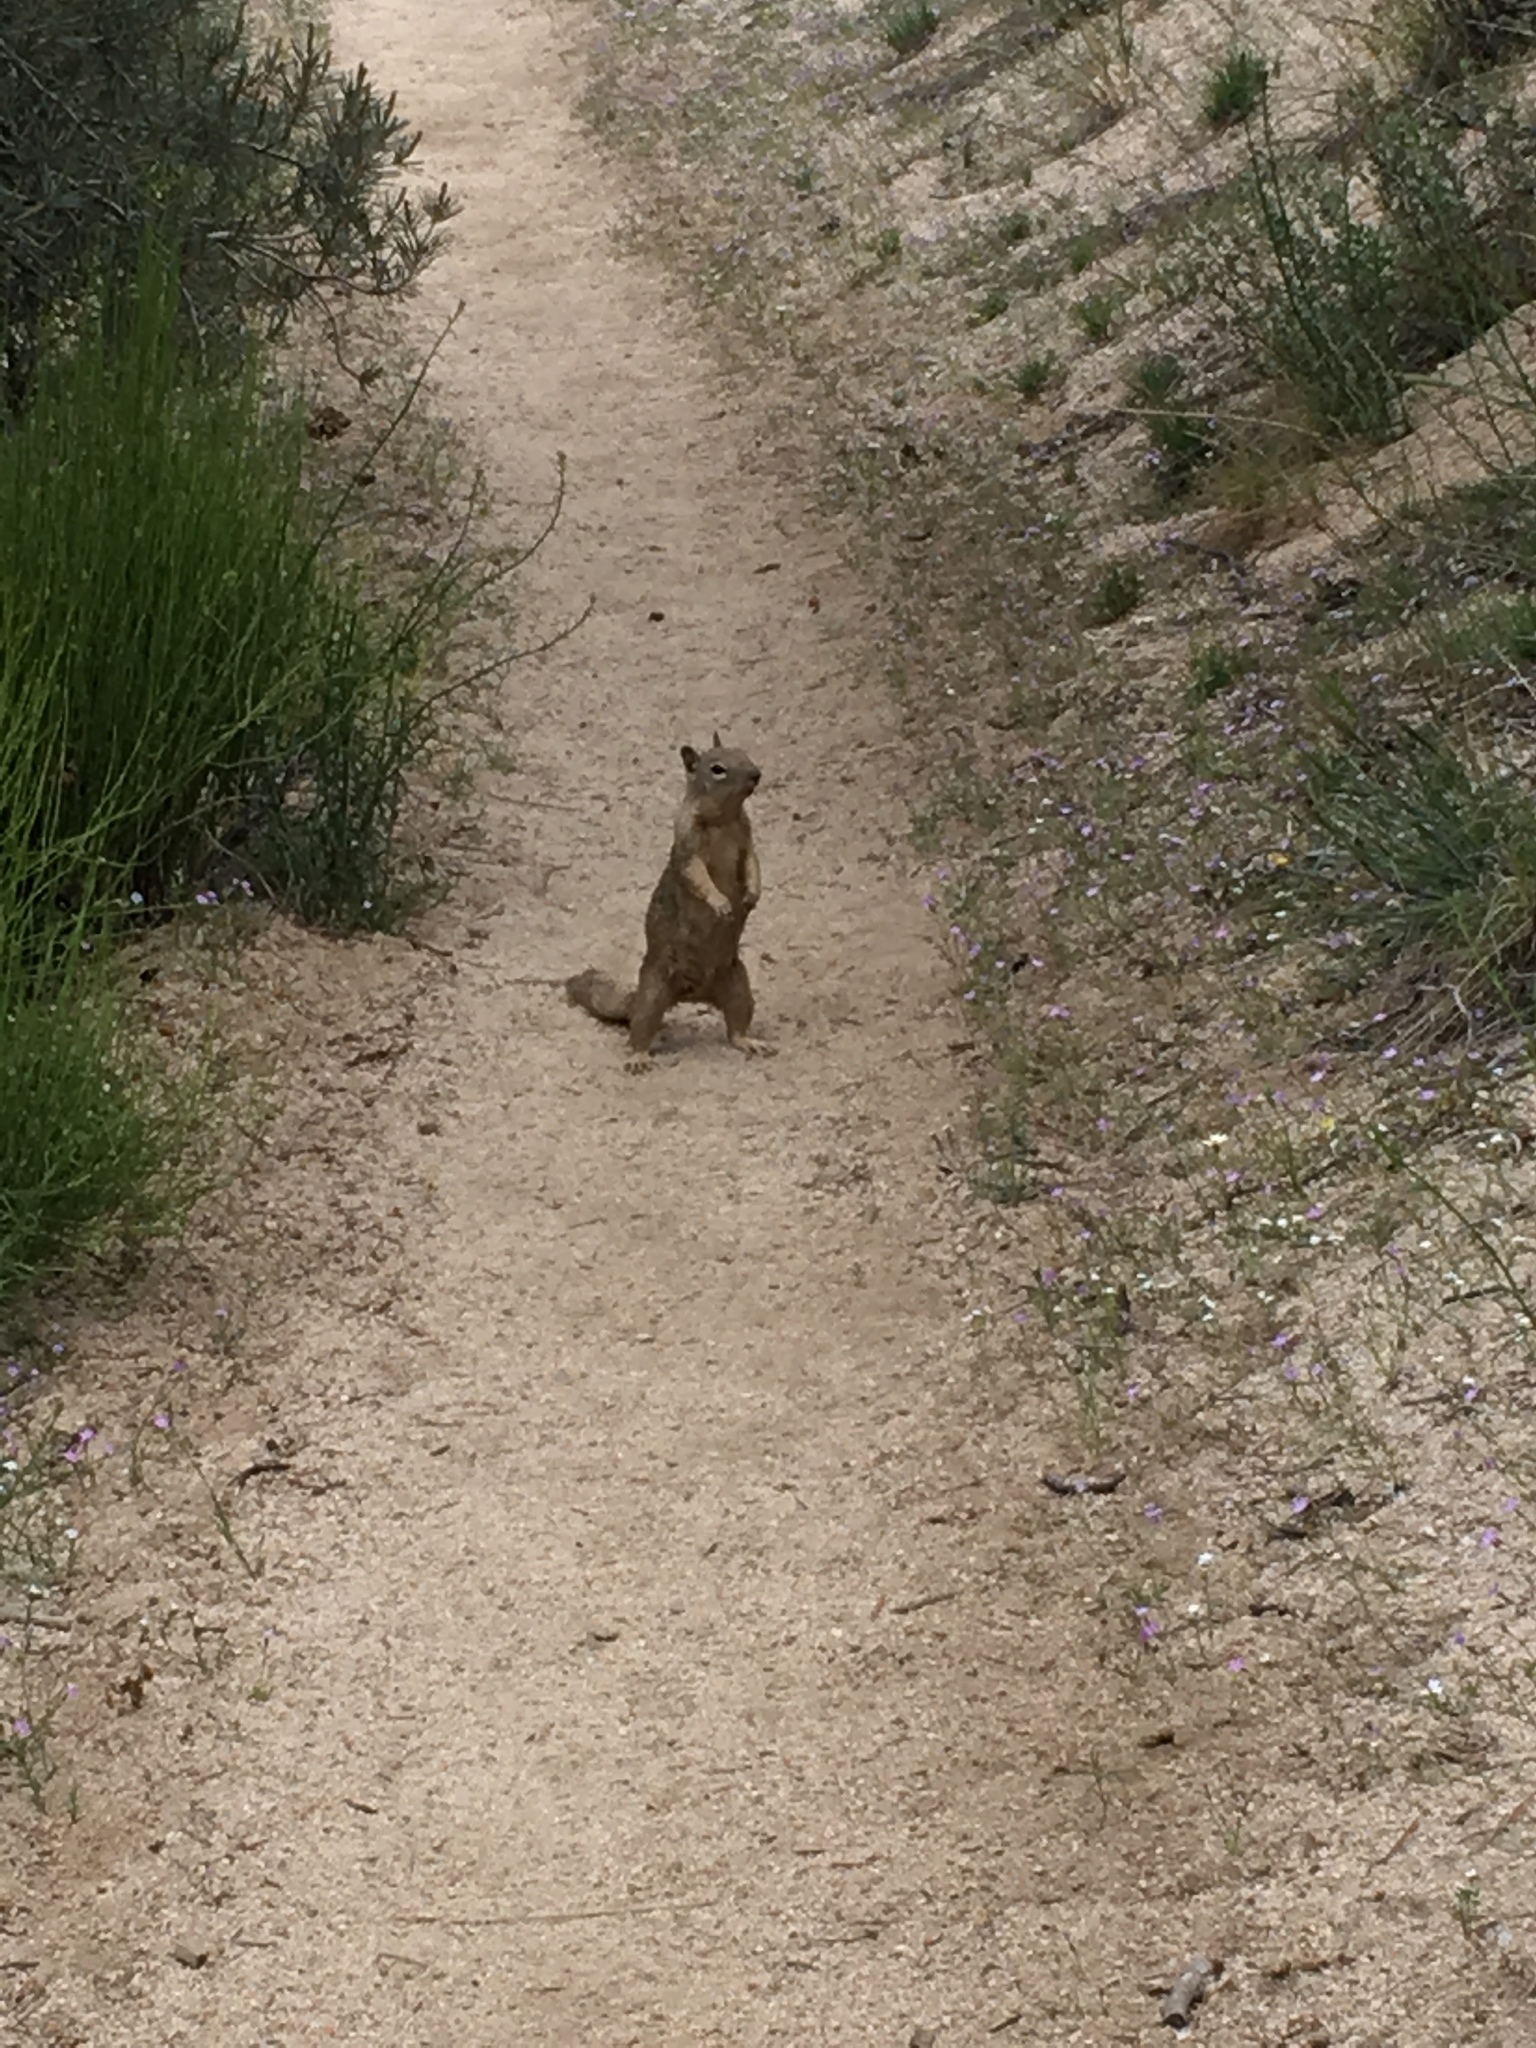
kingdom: Animalia
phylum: Chordata
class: Mammalia
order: Rodentia
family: Sciuridae
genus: Otospermophilus
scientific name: Otospermophilus beecheyi
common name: California ground squirrel
